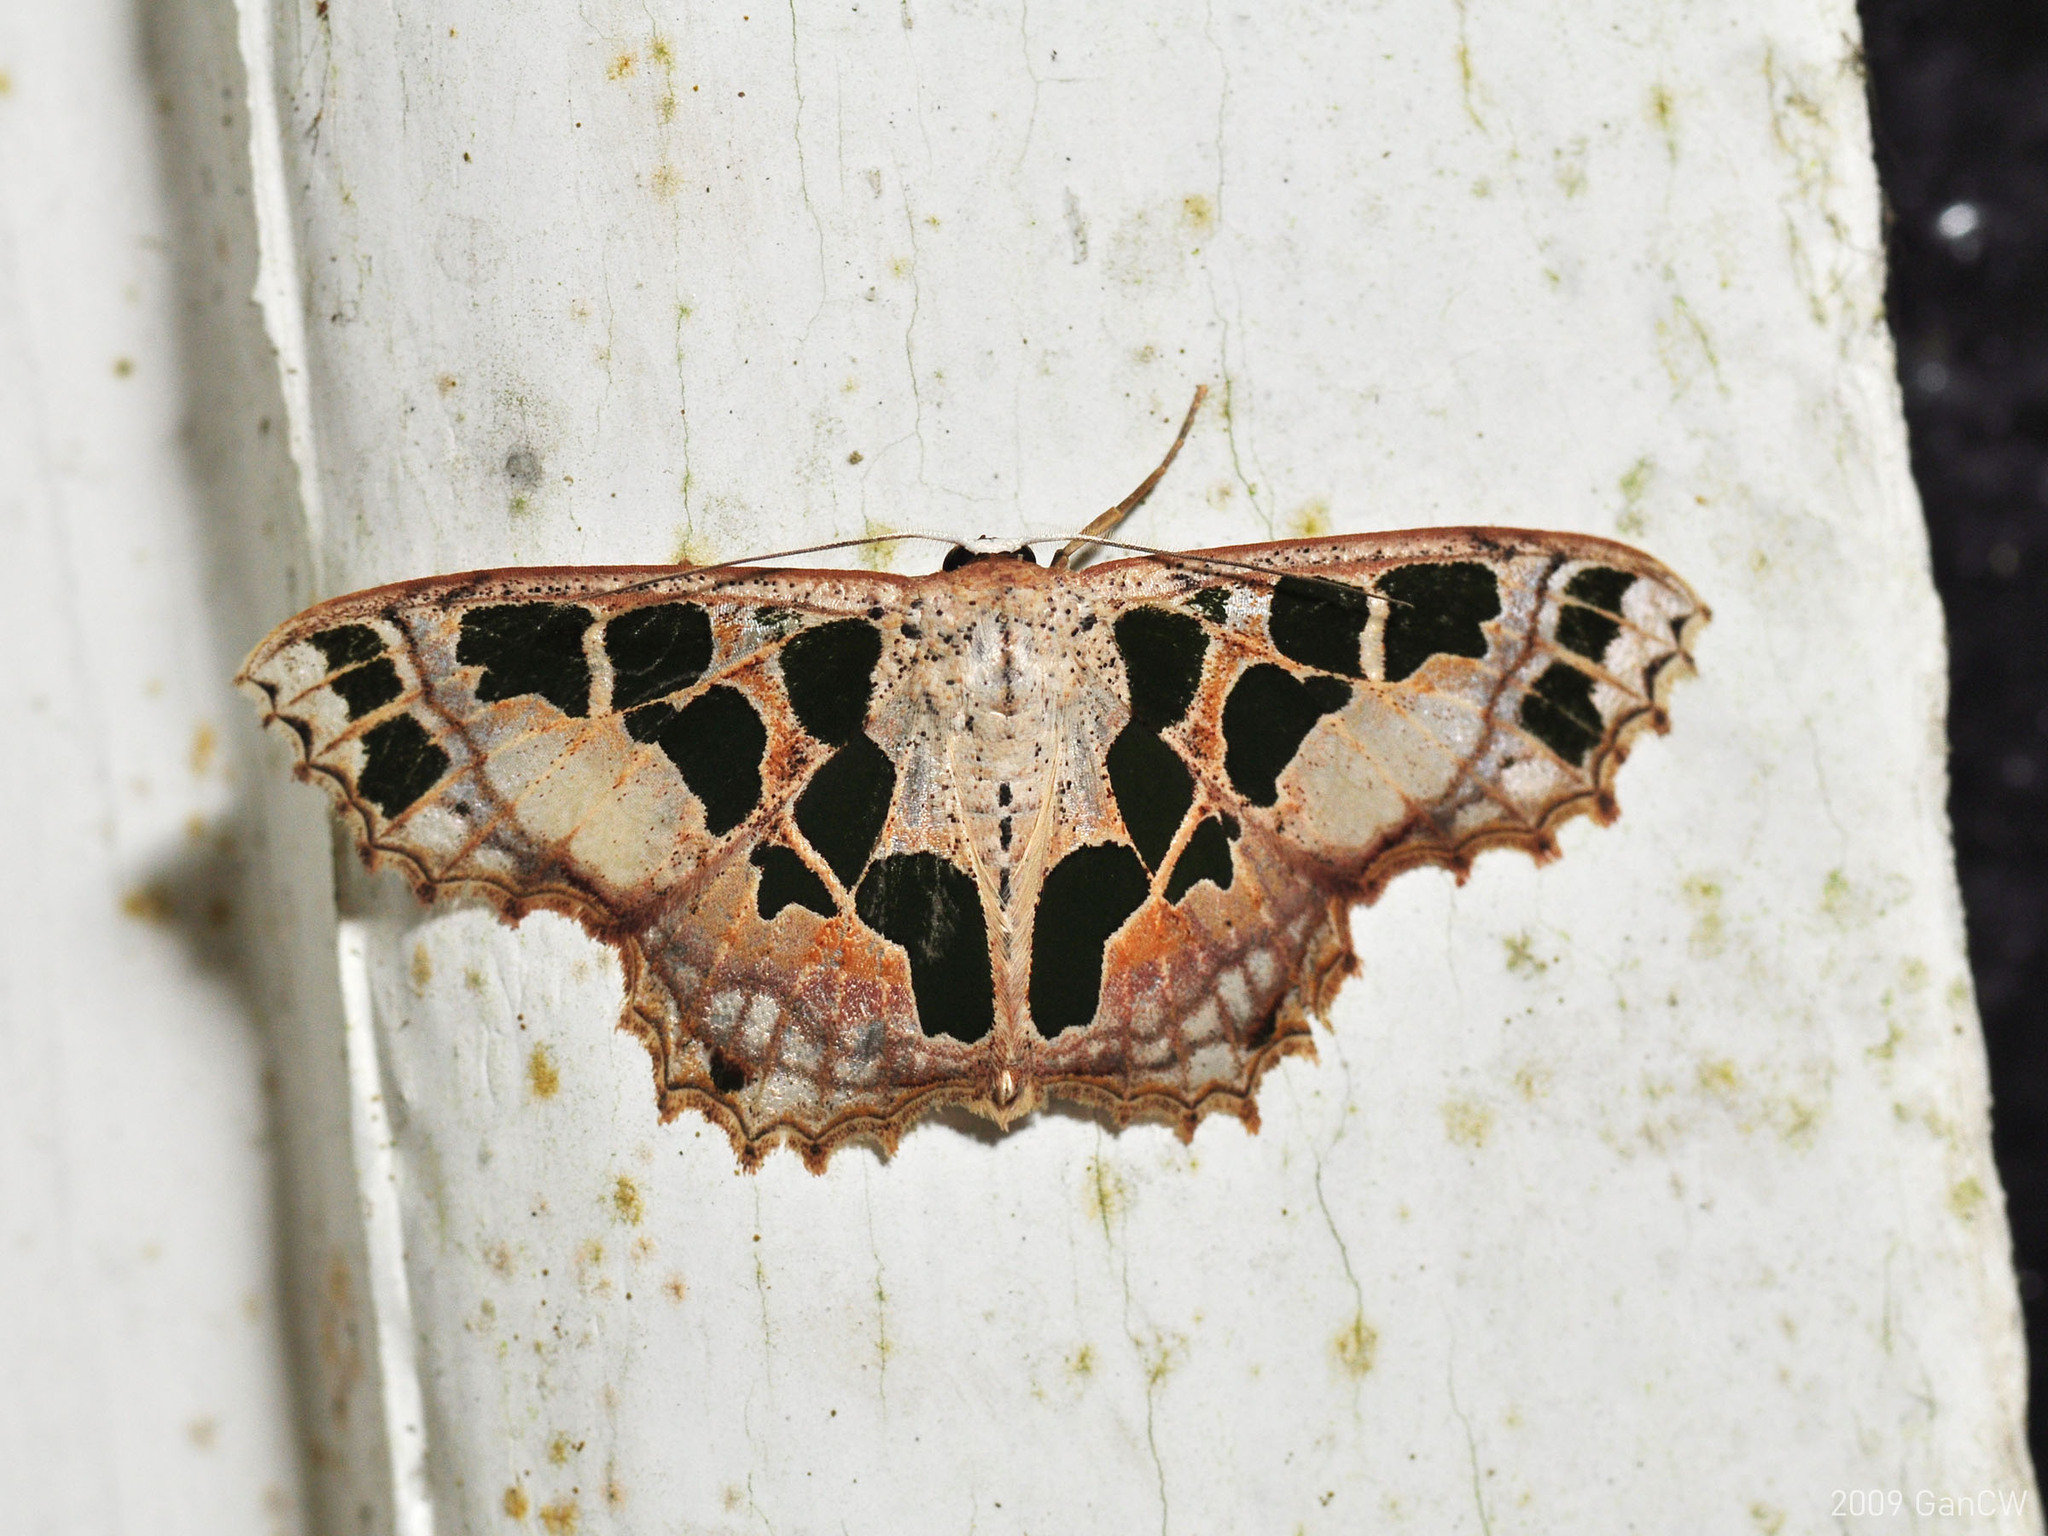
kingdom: Animalia
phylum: Arthropoda
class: Insecta
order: Lepidoptera
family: Geometridae
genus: Scopula
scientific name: Scopula divisaria
